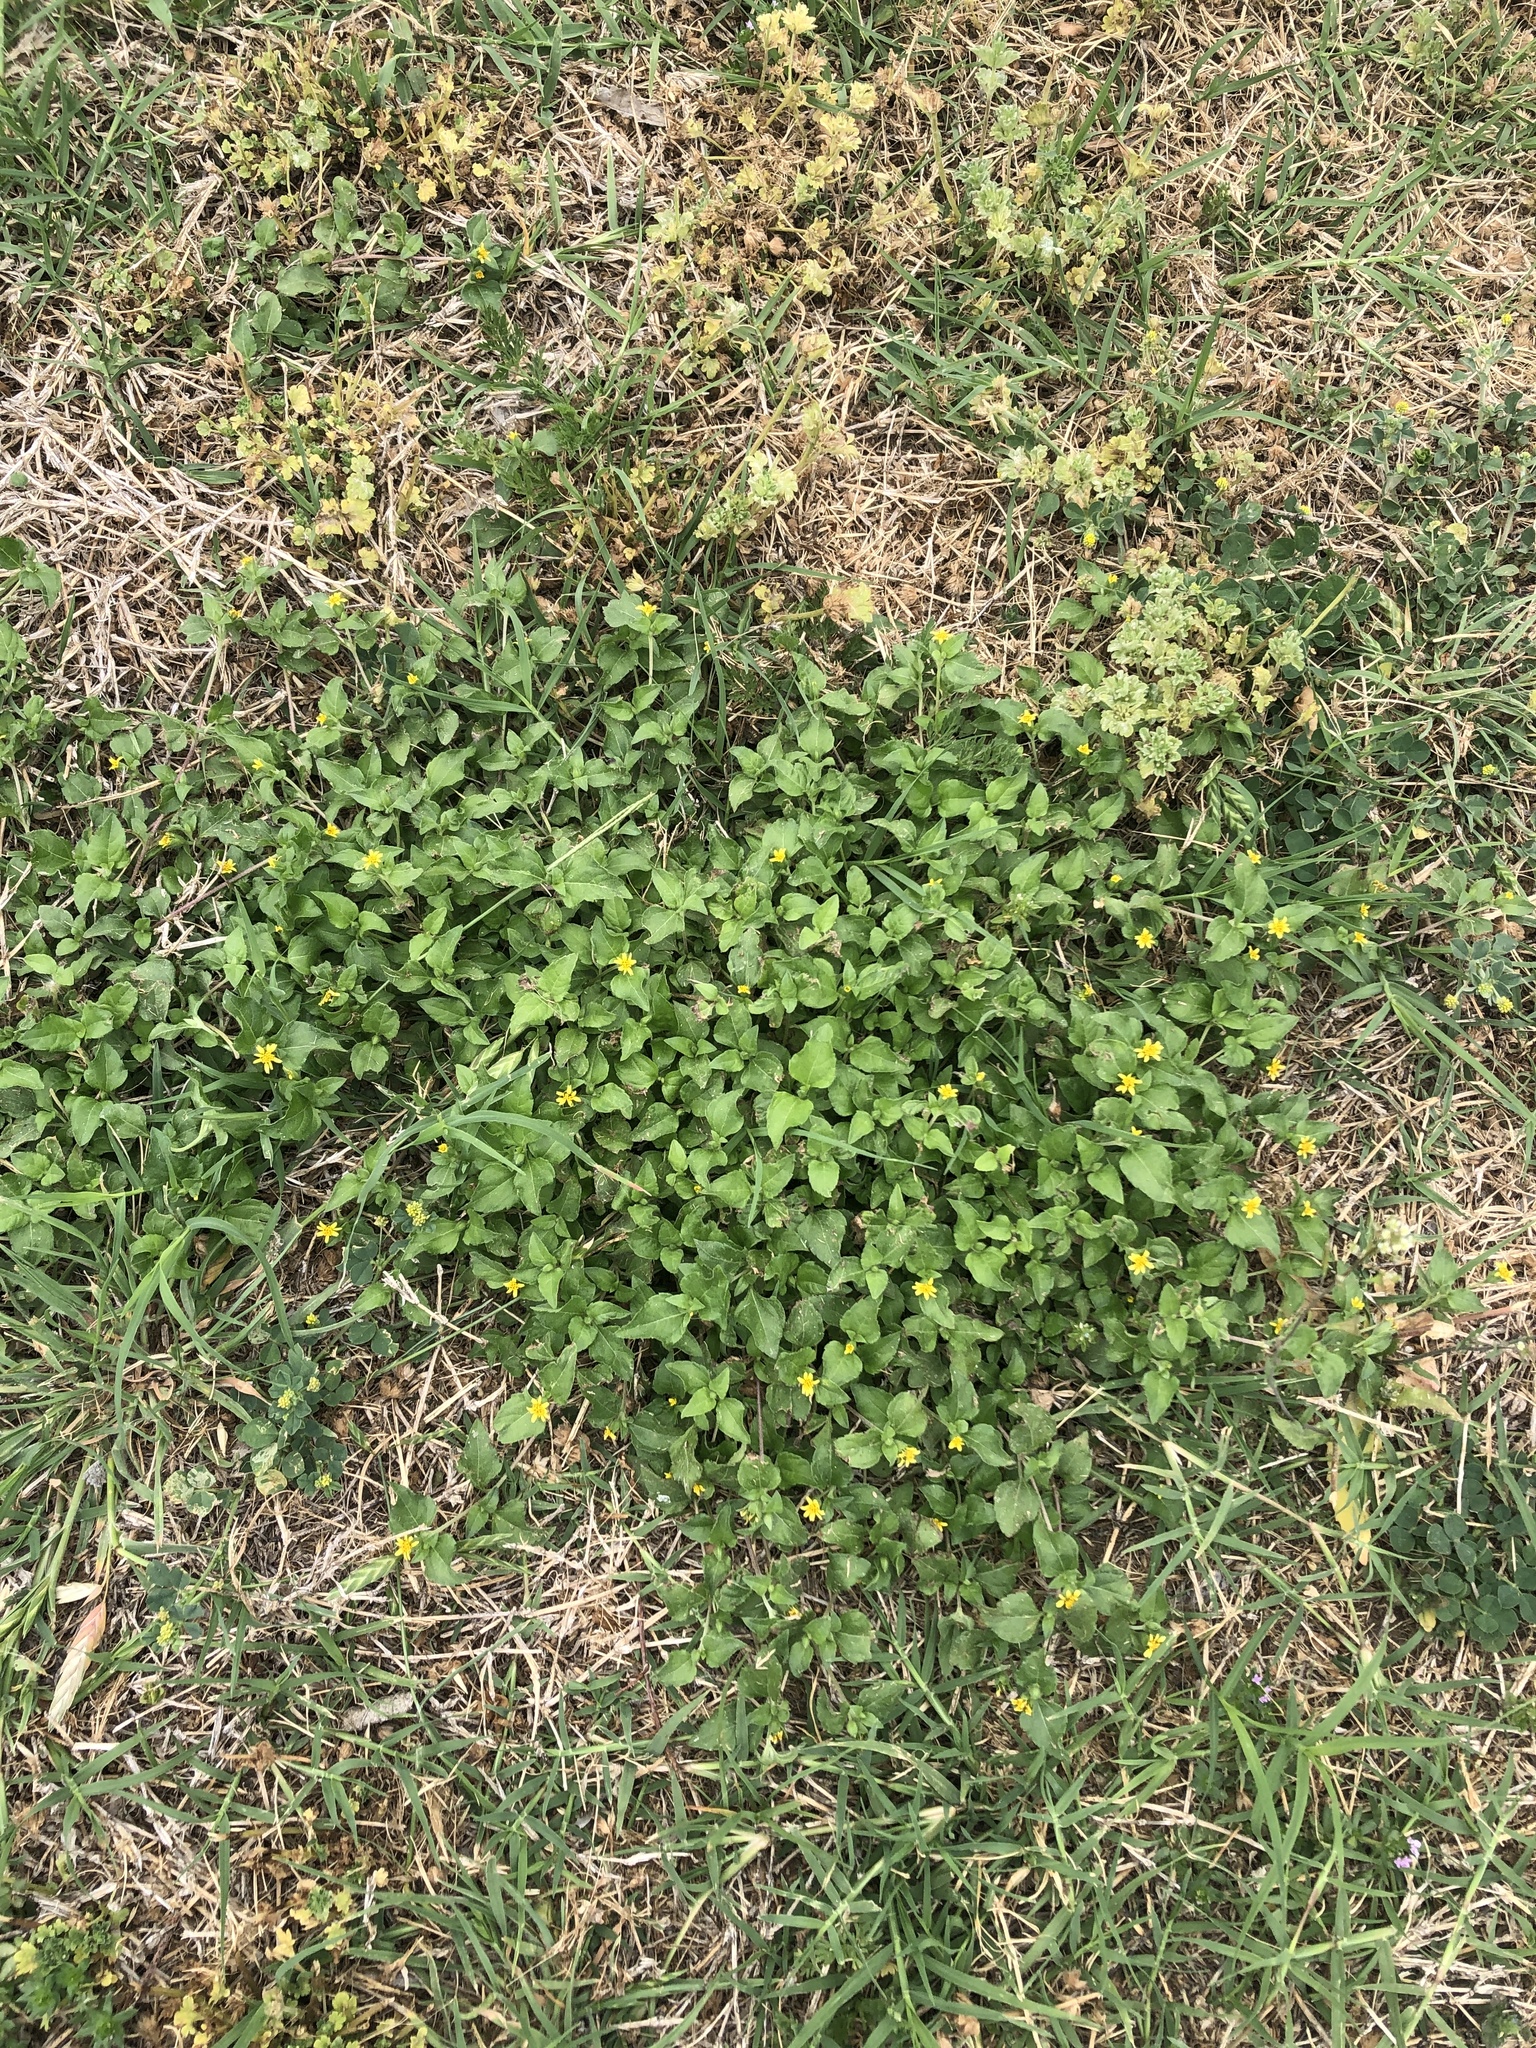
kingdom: Plantae
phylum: Tracheophyta
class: Magnoliopsida
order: Asterales
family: Asteraceae
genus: Calyptocarpus
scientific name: Calyptocarpus vialis
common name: Straggler daisy
